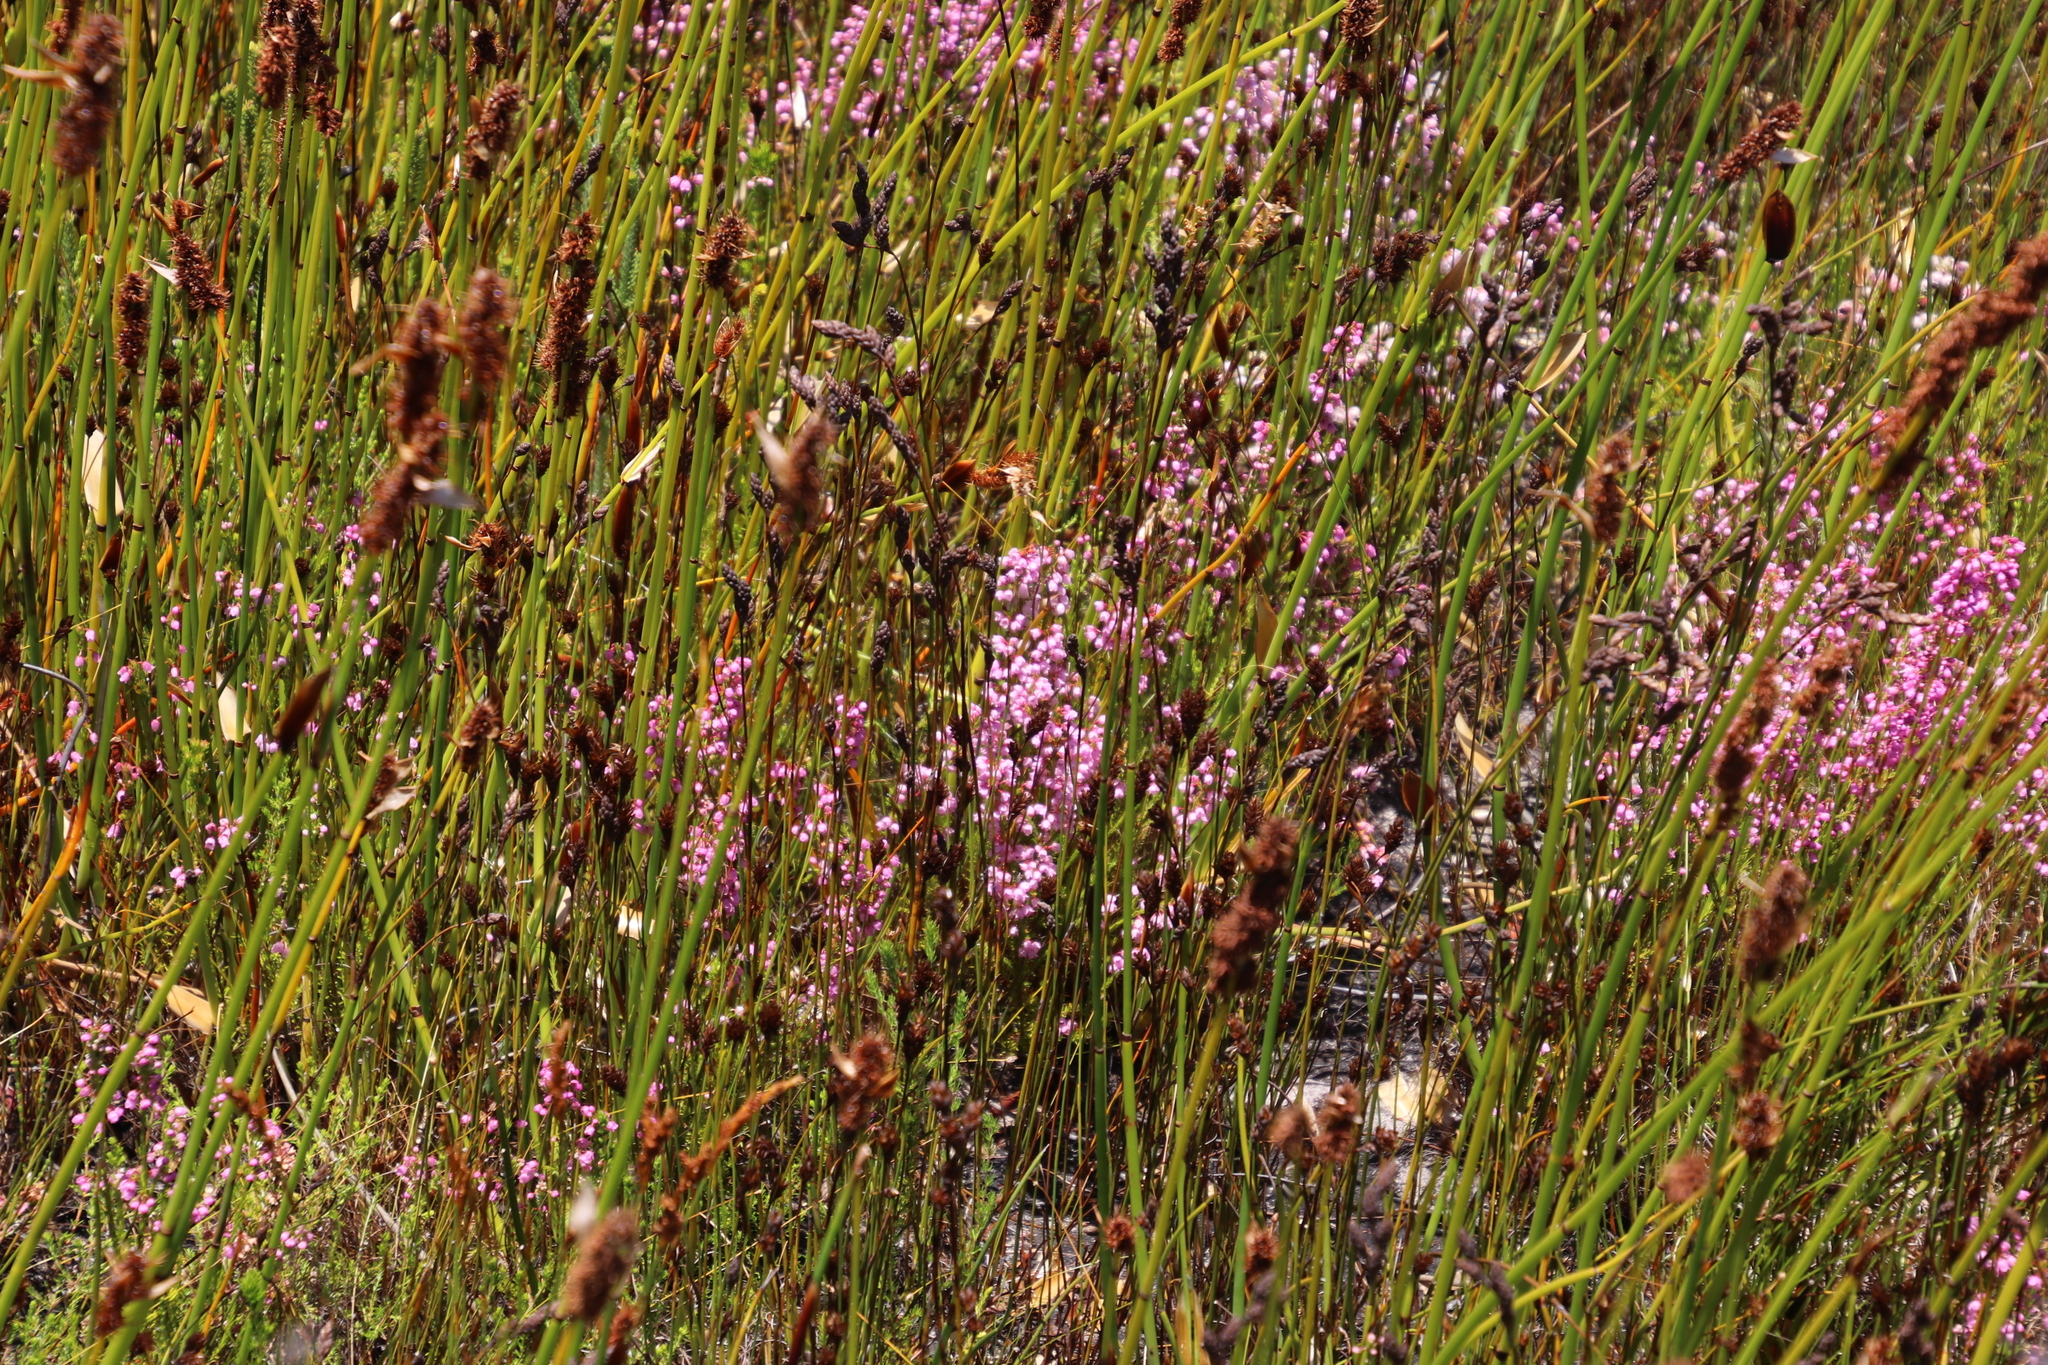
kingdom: Plantae
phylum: Tracheophyta
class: Liliopsida
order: Poales
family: Restionaceae
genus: Elegia
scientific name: Elegia cuspidata
